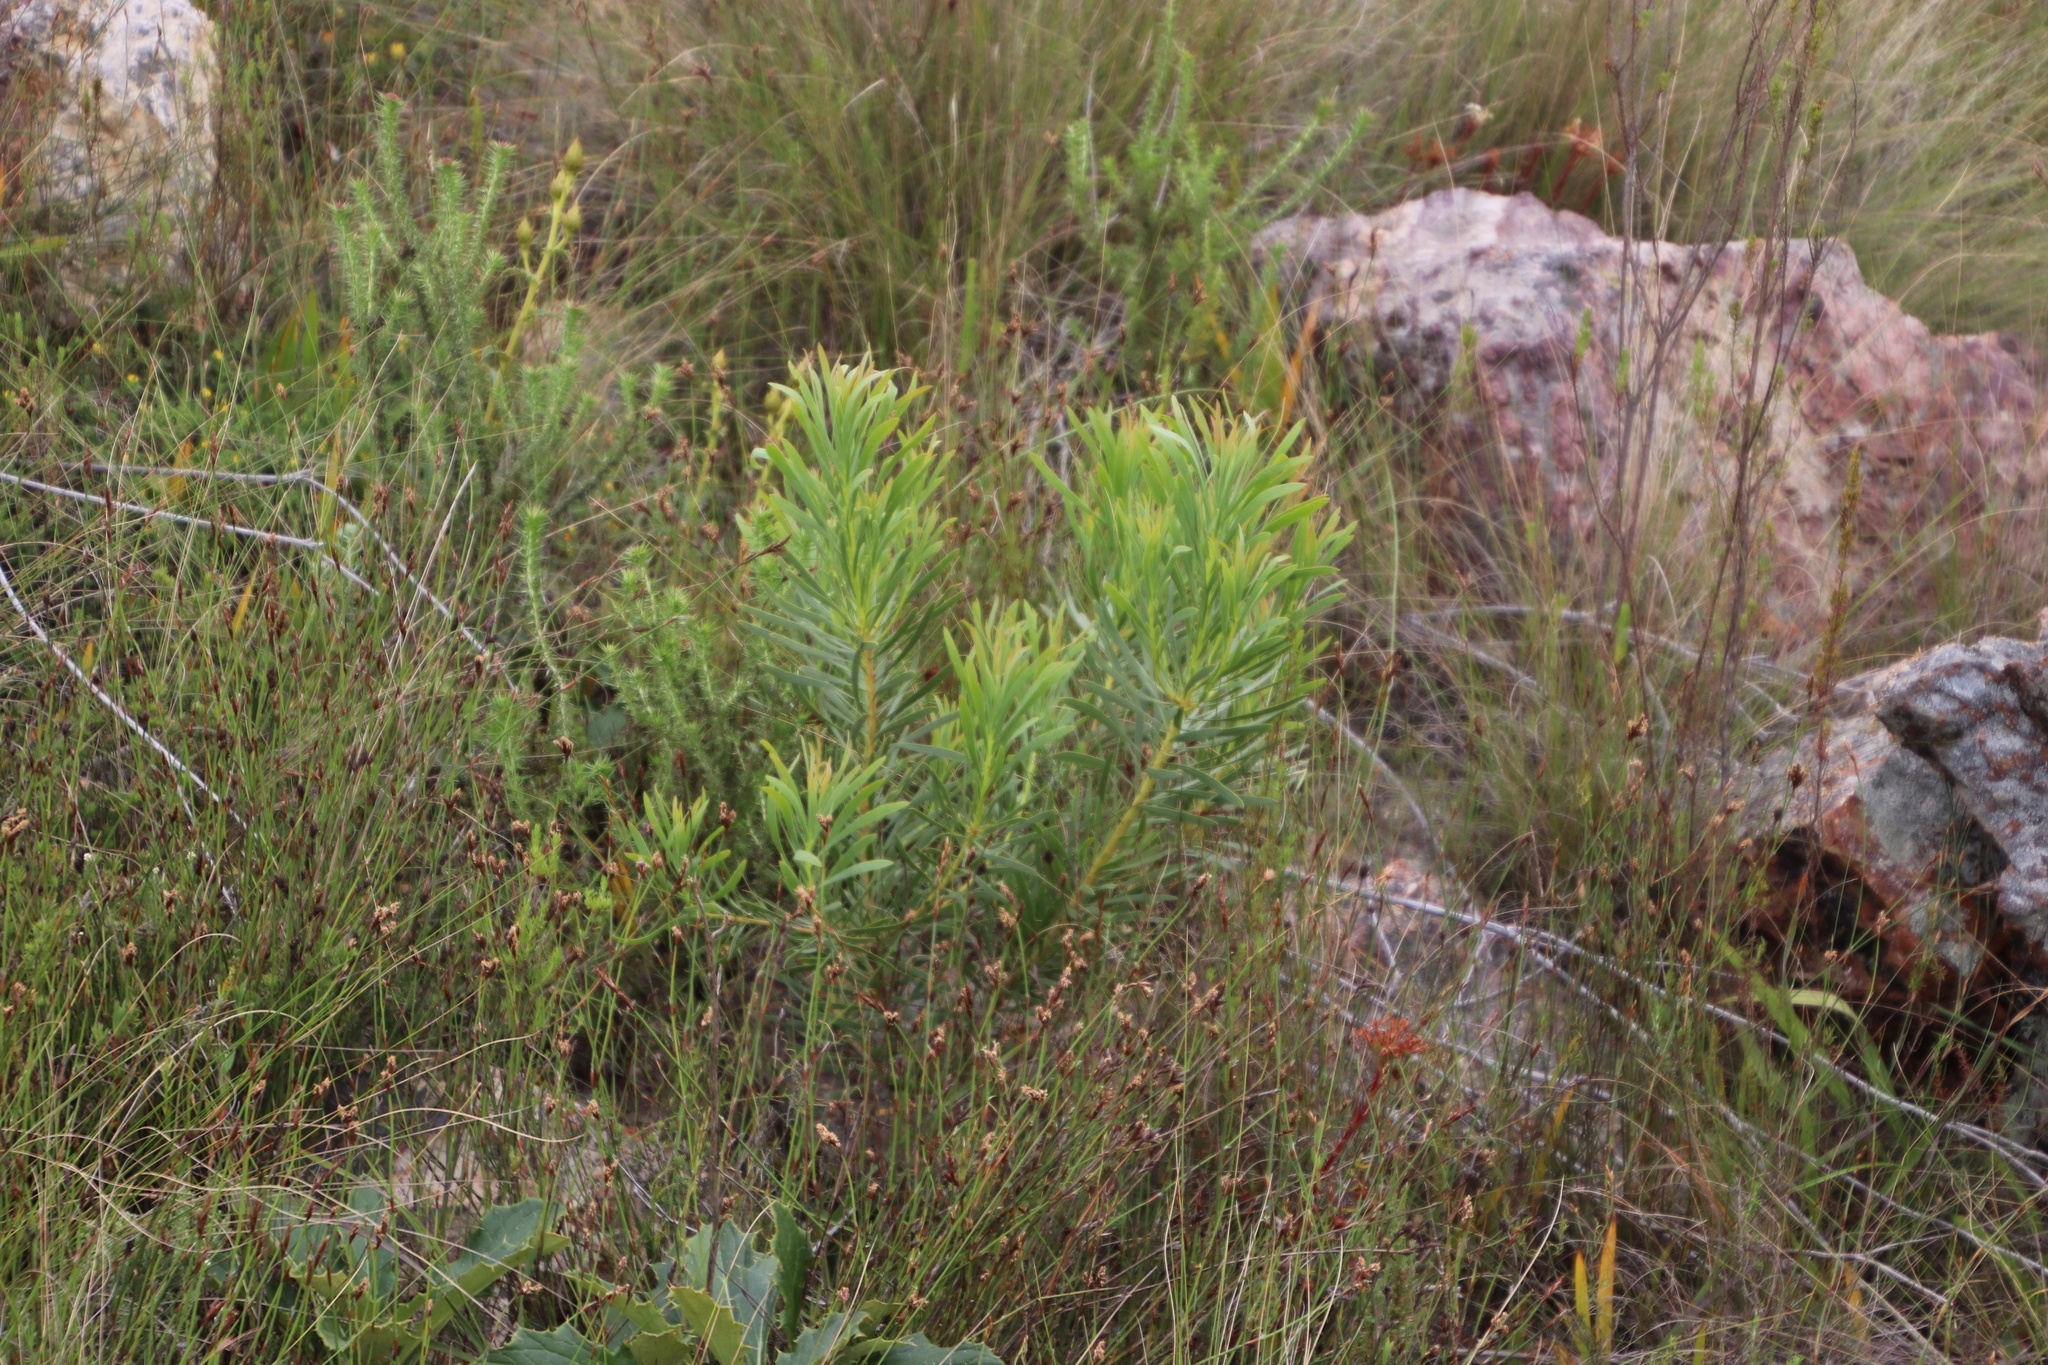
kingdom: Plantae
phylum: Tracheophyta
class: Magnoliopsida
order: Proteales
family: Proteaceae
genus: Protea
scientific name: Protea repens
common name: Sugarbush
